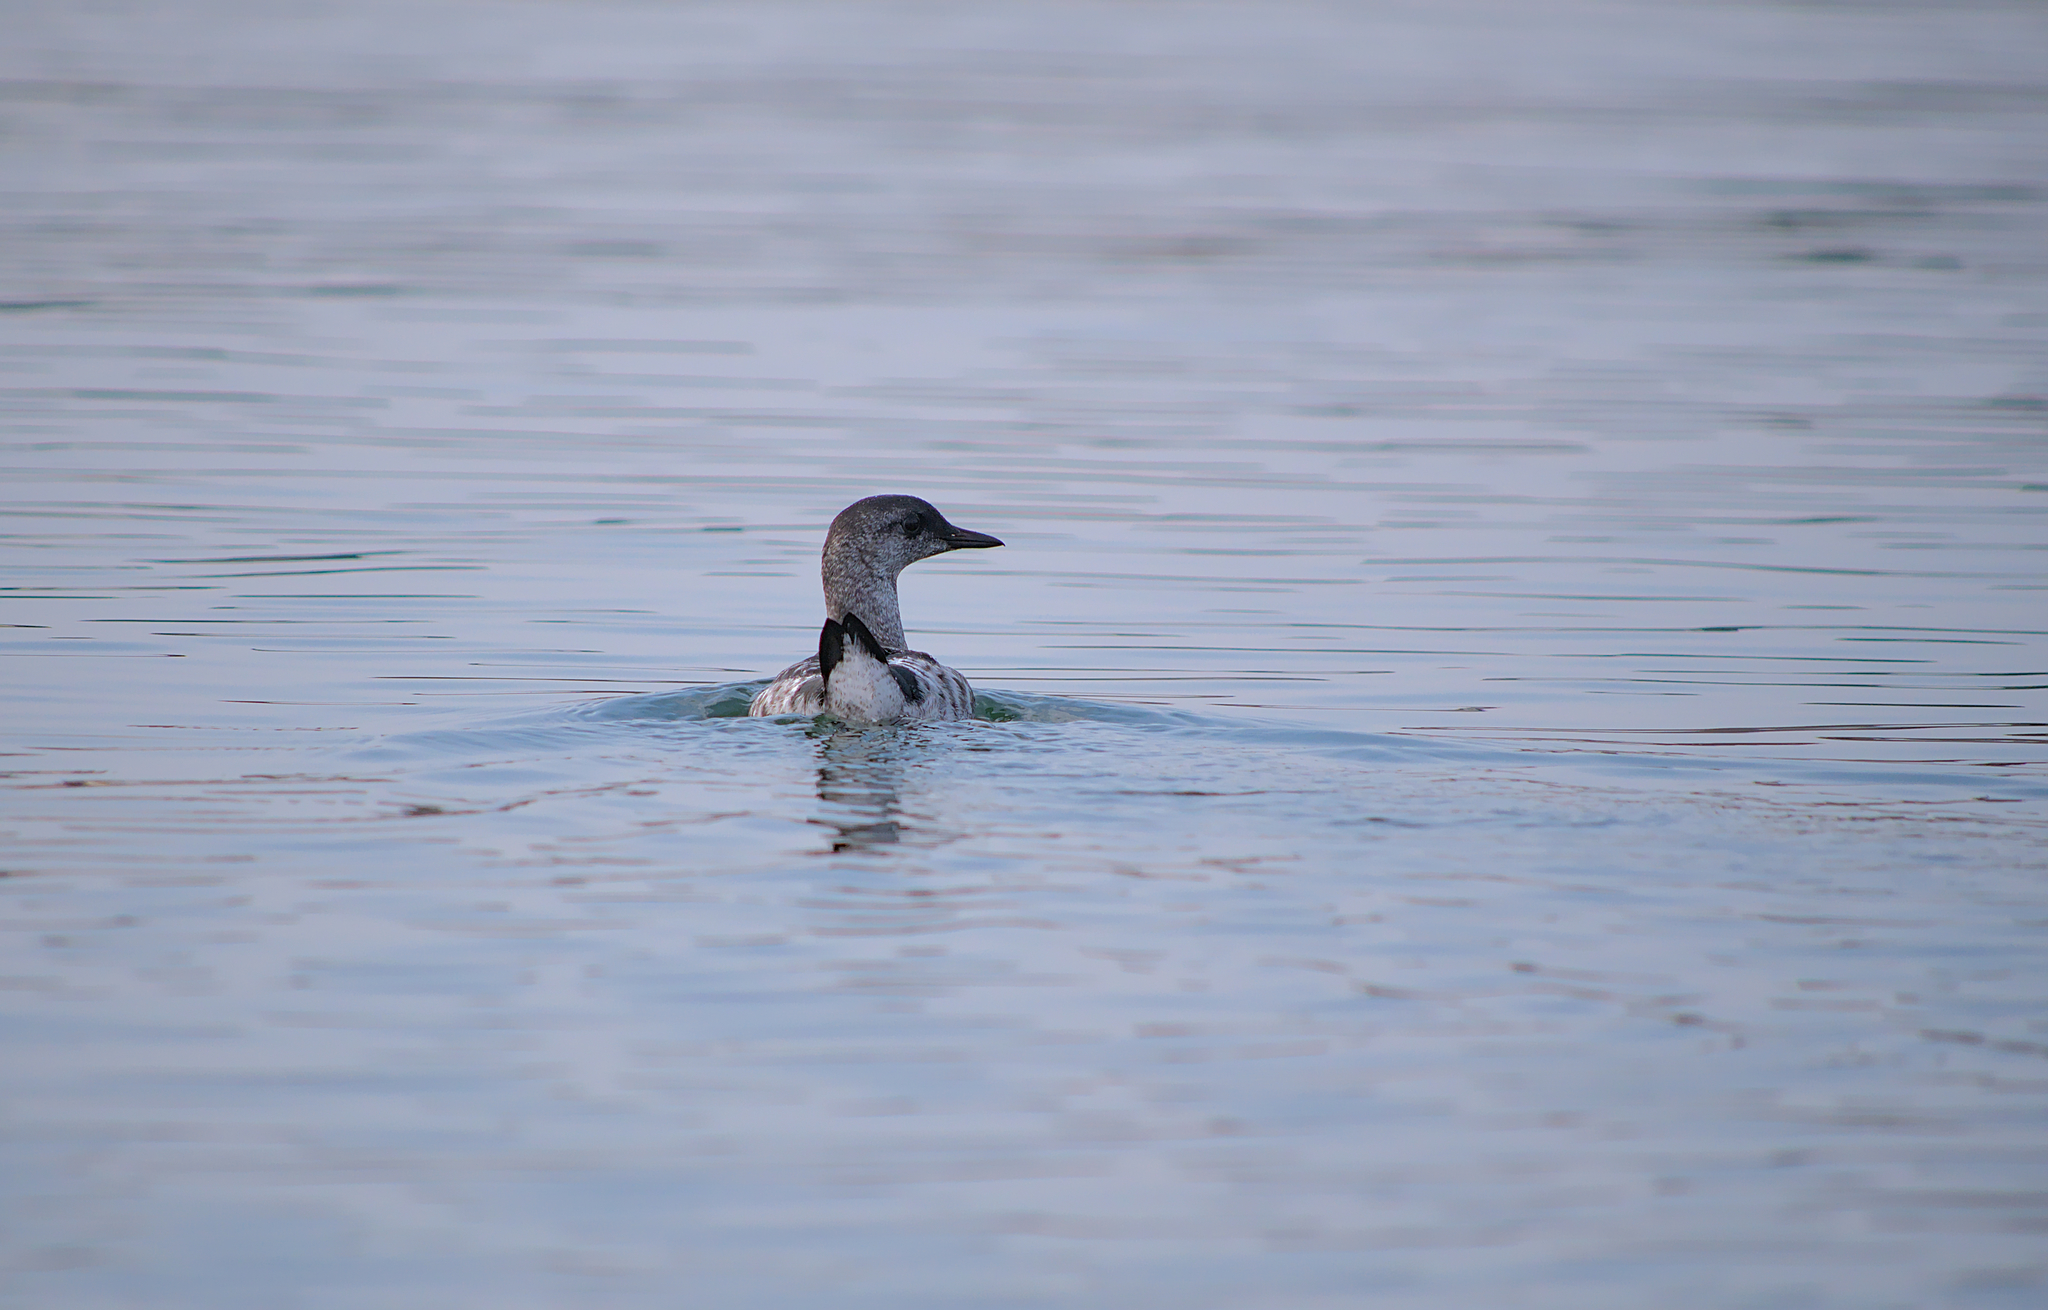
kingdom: Animalia
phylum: Chordata
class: Aves
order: Charadriiformes
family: Alcidae
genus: Cepphus
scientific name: Cepphus grylle
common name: Black guillemot
